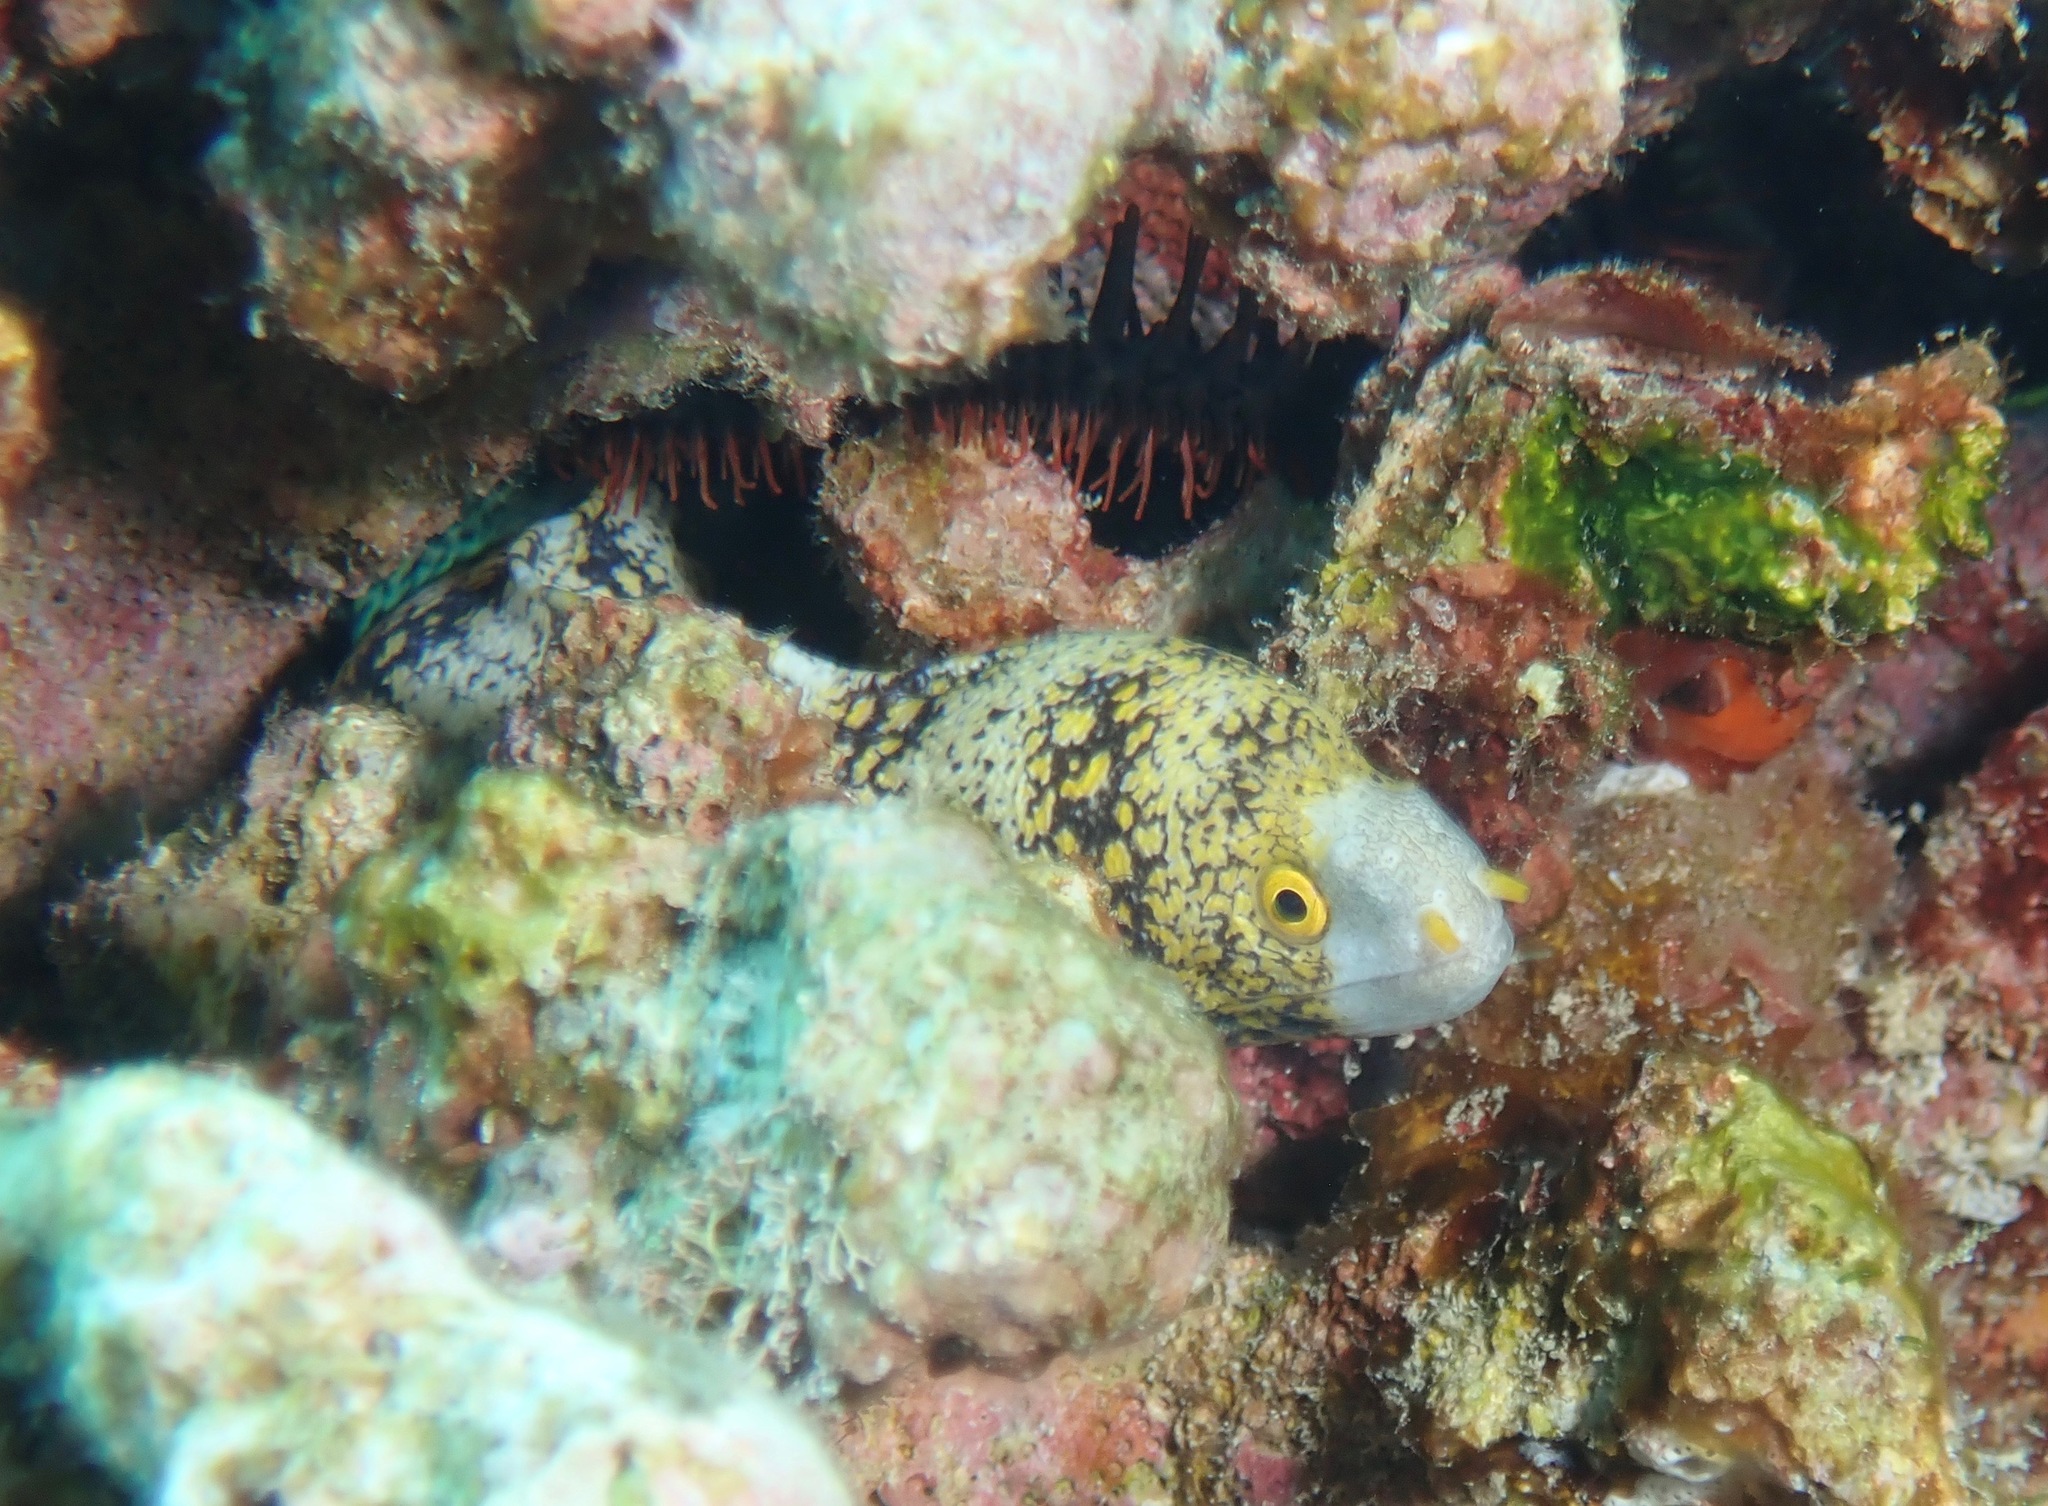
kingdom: Animalia
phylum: Chordata
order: Anguilliformes
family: Muraenidae
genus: Echidna
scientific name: Echidna nebulosa
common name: Snowflake moray
